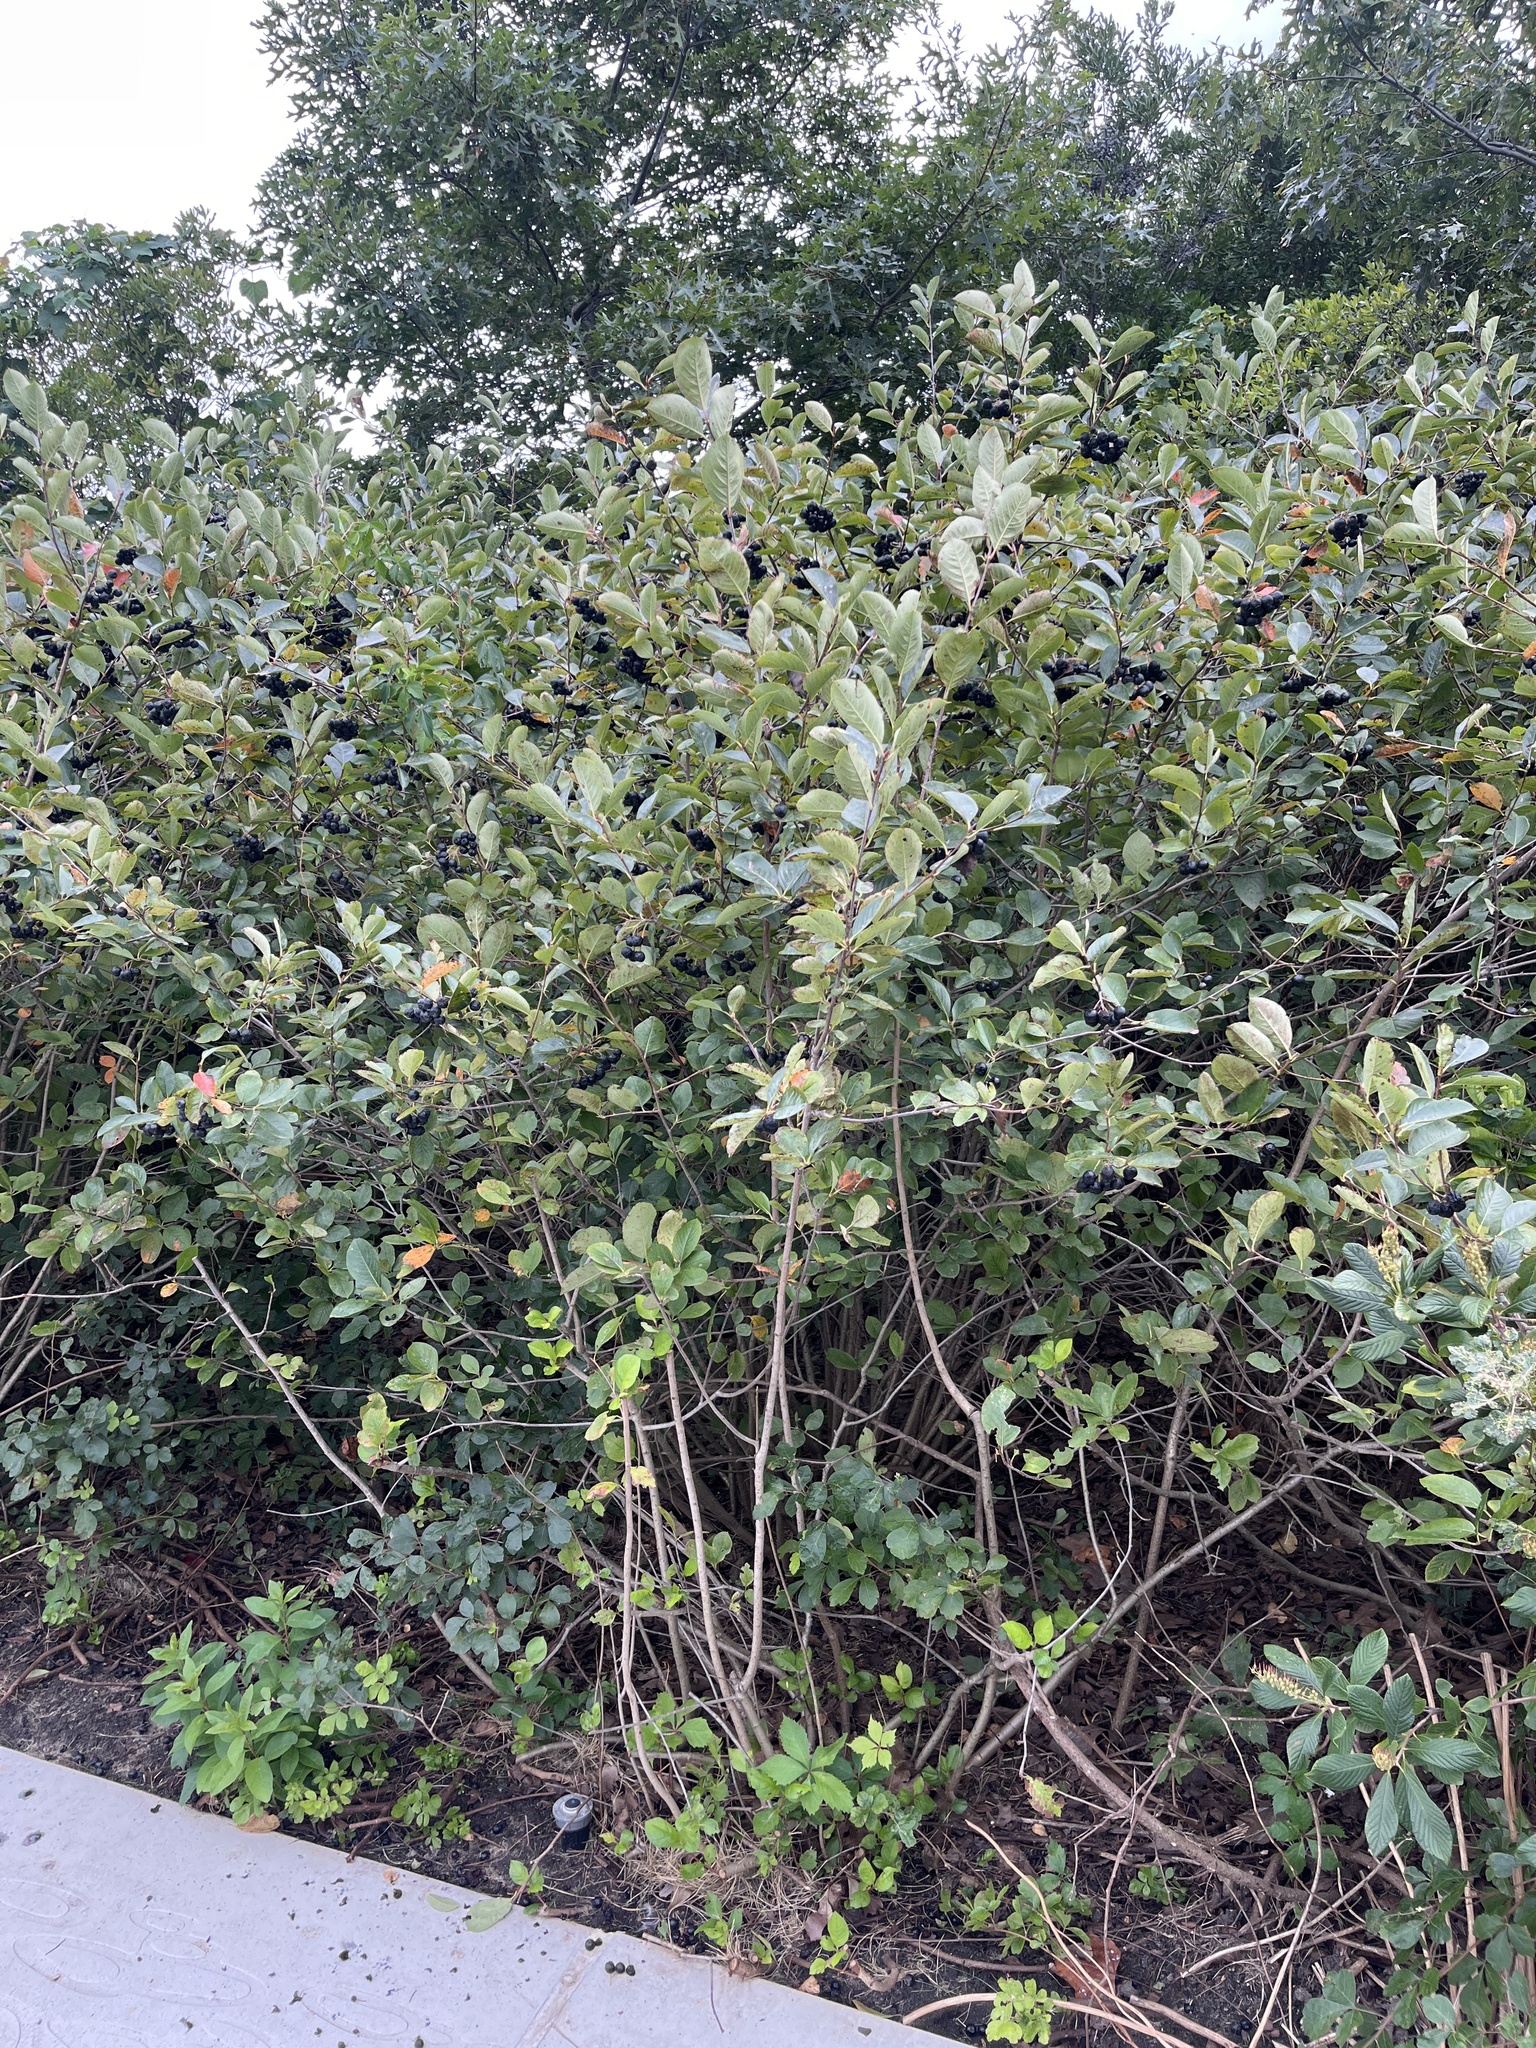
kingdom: Plantae
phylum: Tracheophyta
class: Magnoliopsida
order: Rosales
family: Rosaceae
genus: Aronia
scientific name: Aronia melanocarpa
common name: Black chokeberry
